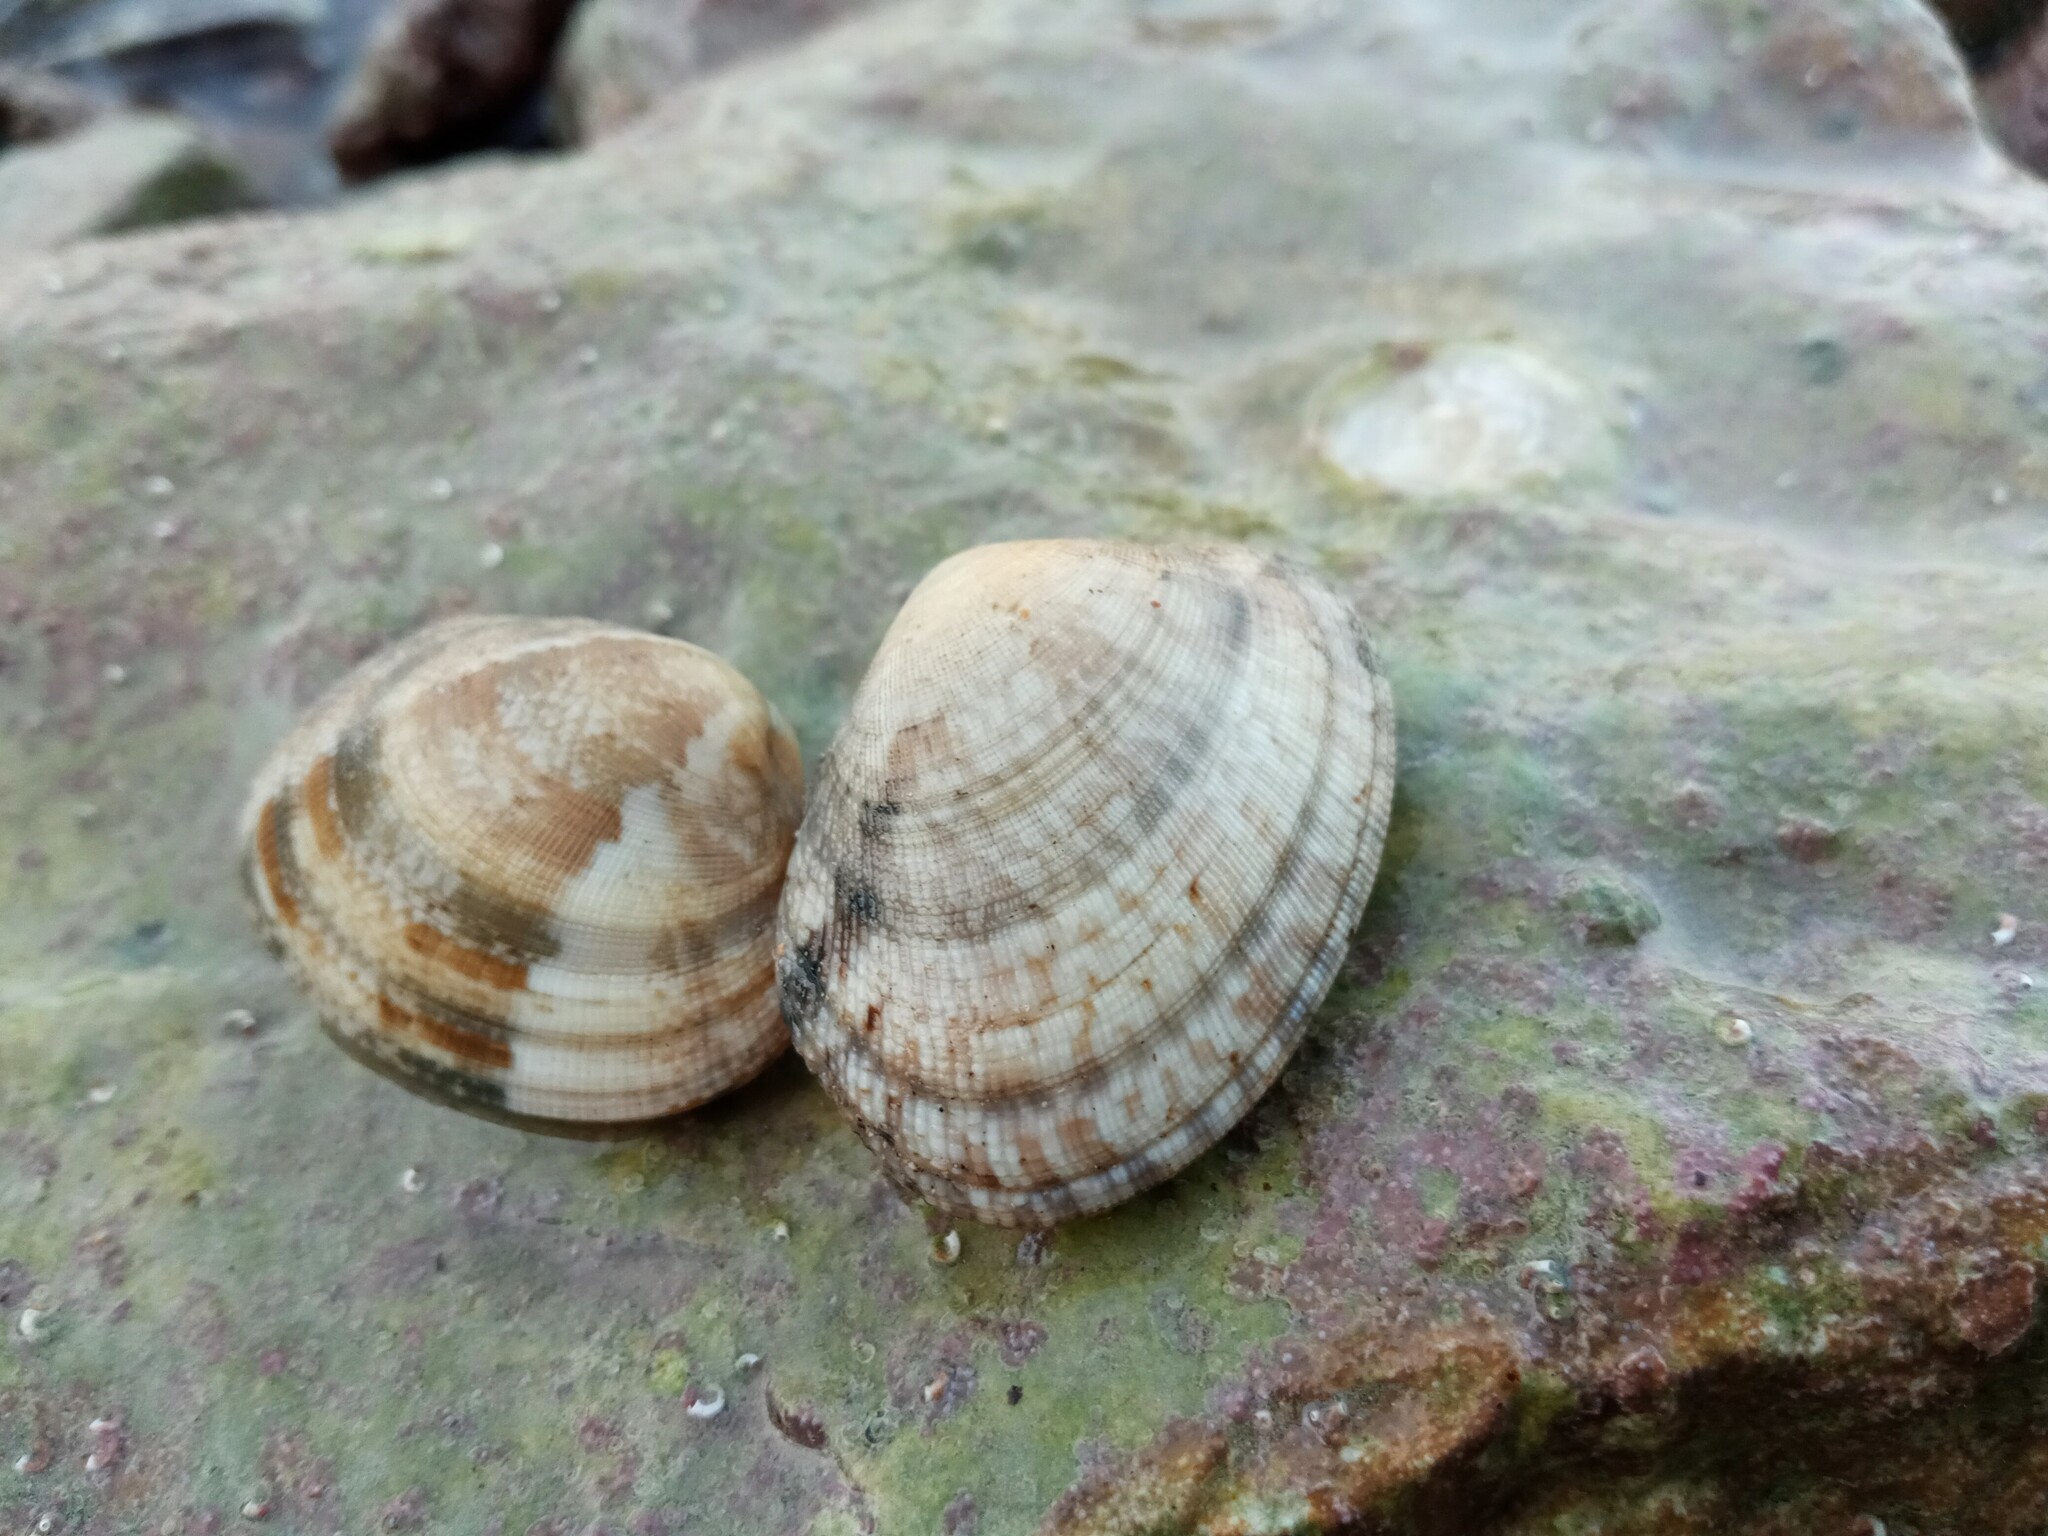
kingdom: Animalia
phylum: Mollusca
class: Bivalvia
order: Venerida
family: Veneridae
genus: Ruditapes
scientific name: Ruditapes decussatus
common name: Chequered carpet shell
